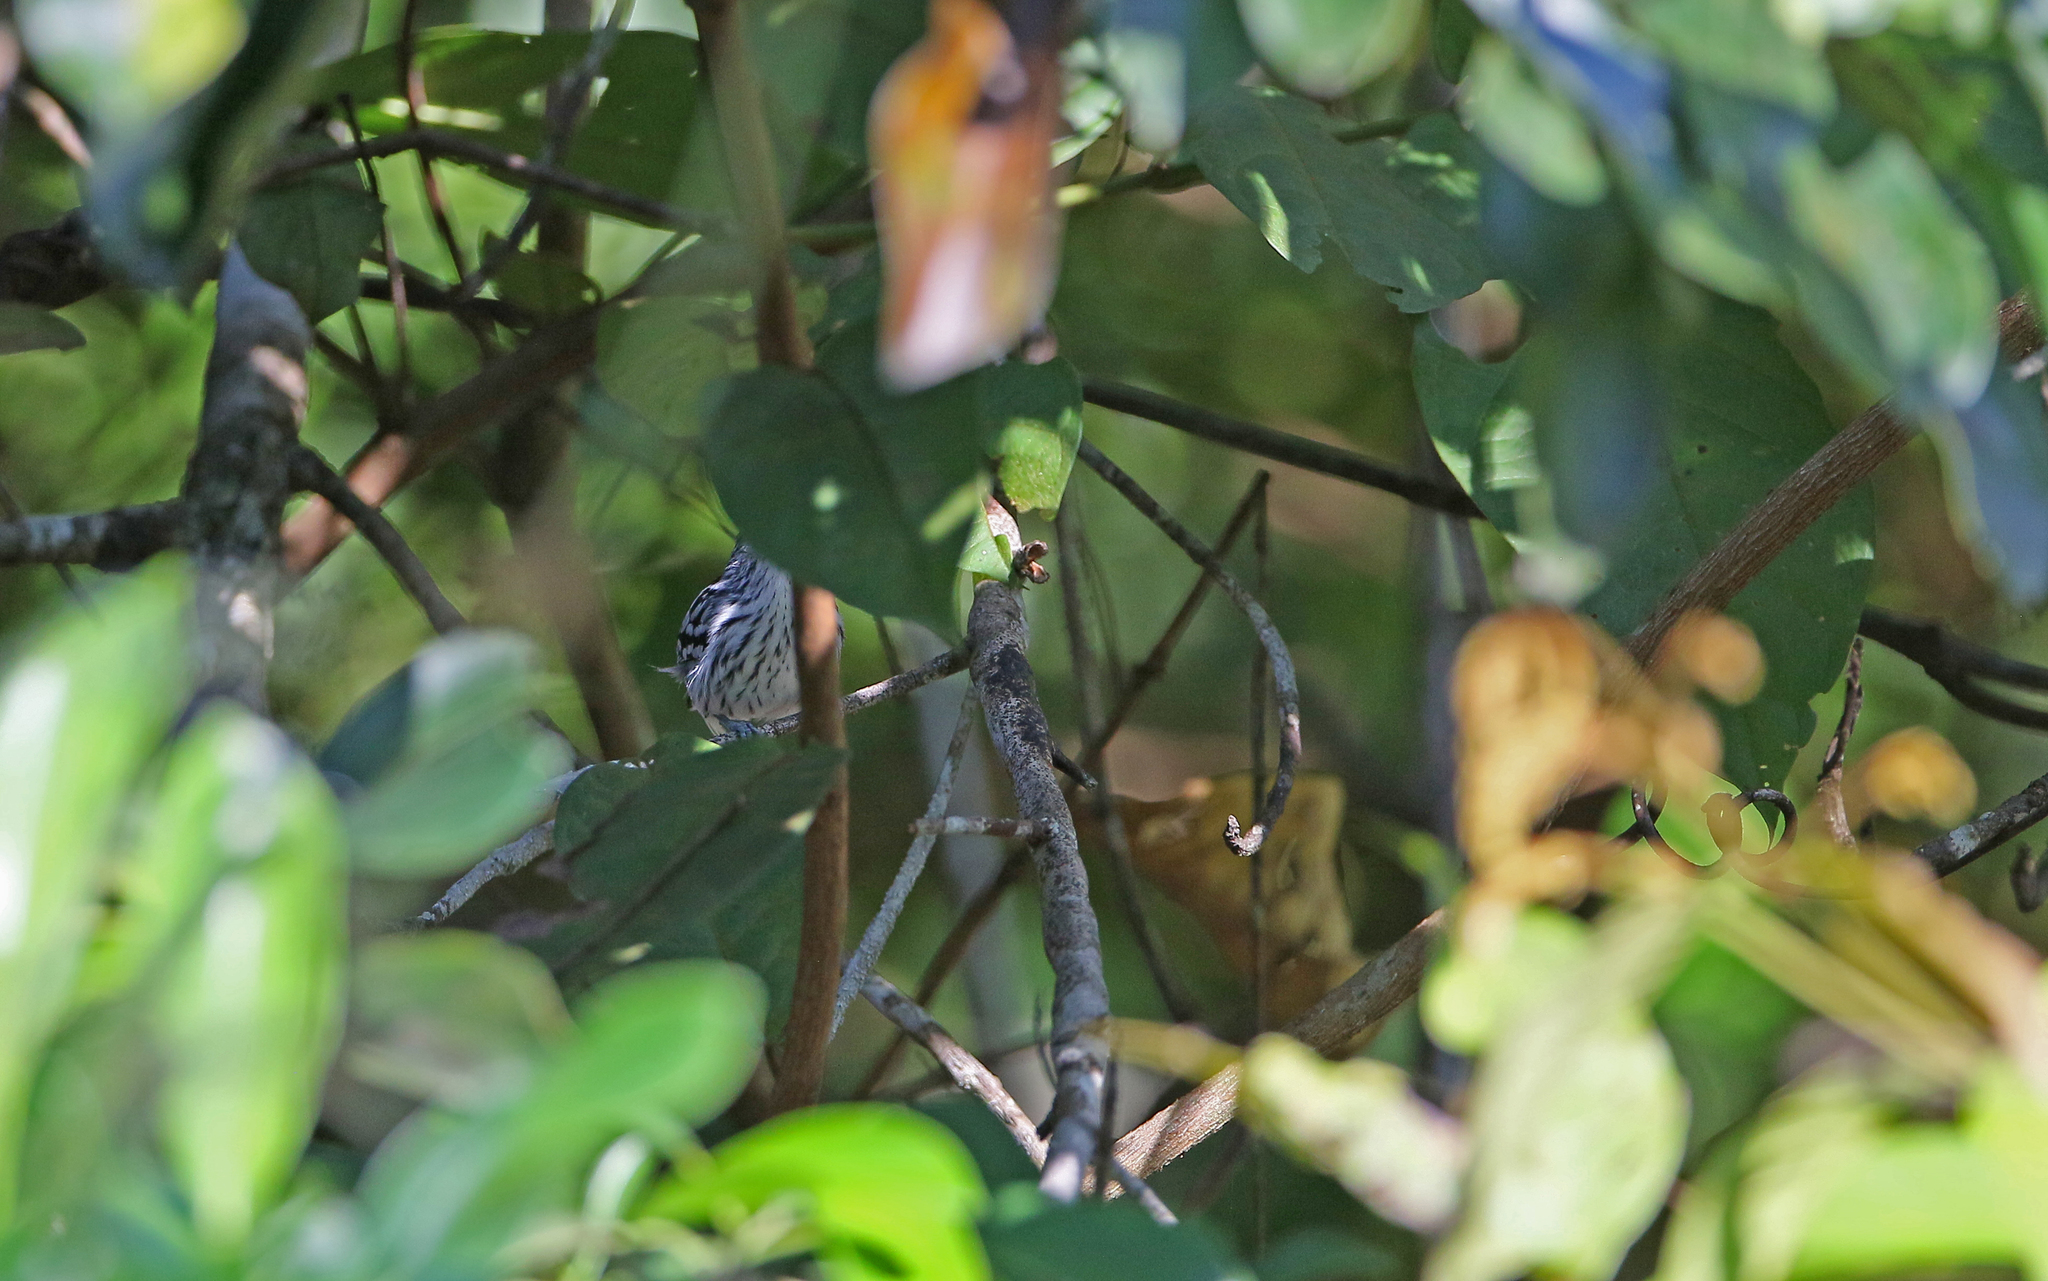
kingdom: Animalia
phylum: Chordata
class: Aves
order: Passeriformes
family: Thamnophilidae
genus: Myrmotherula
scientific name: Myrmotherula multostriata
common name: Amazonian streaked antwren
